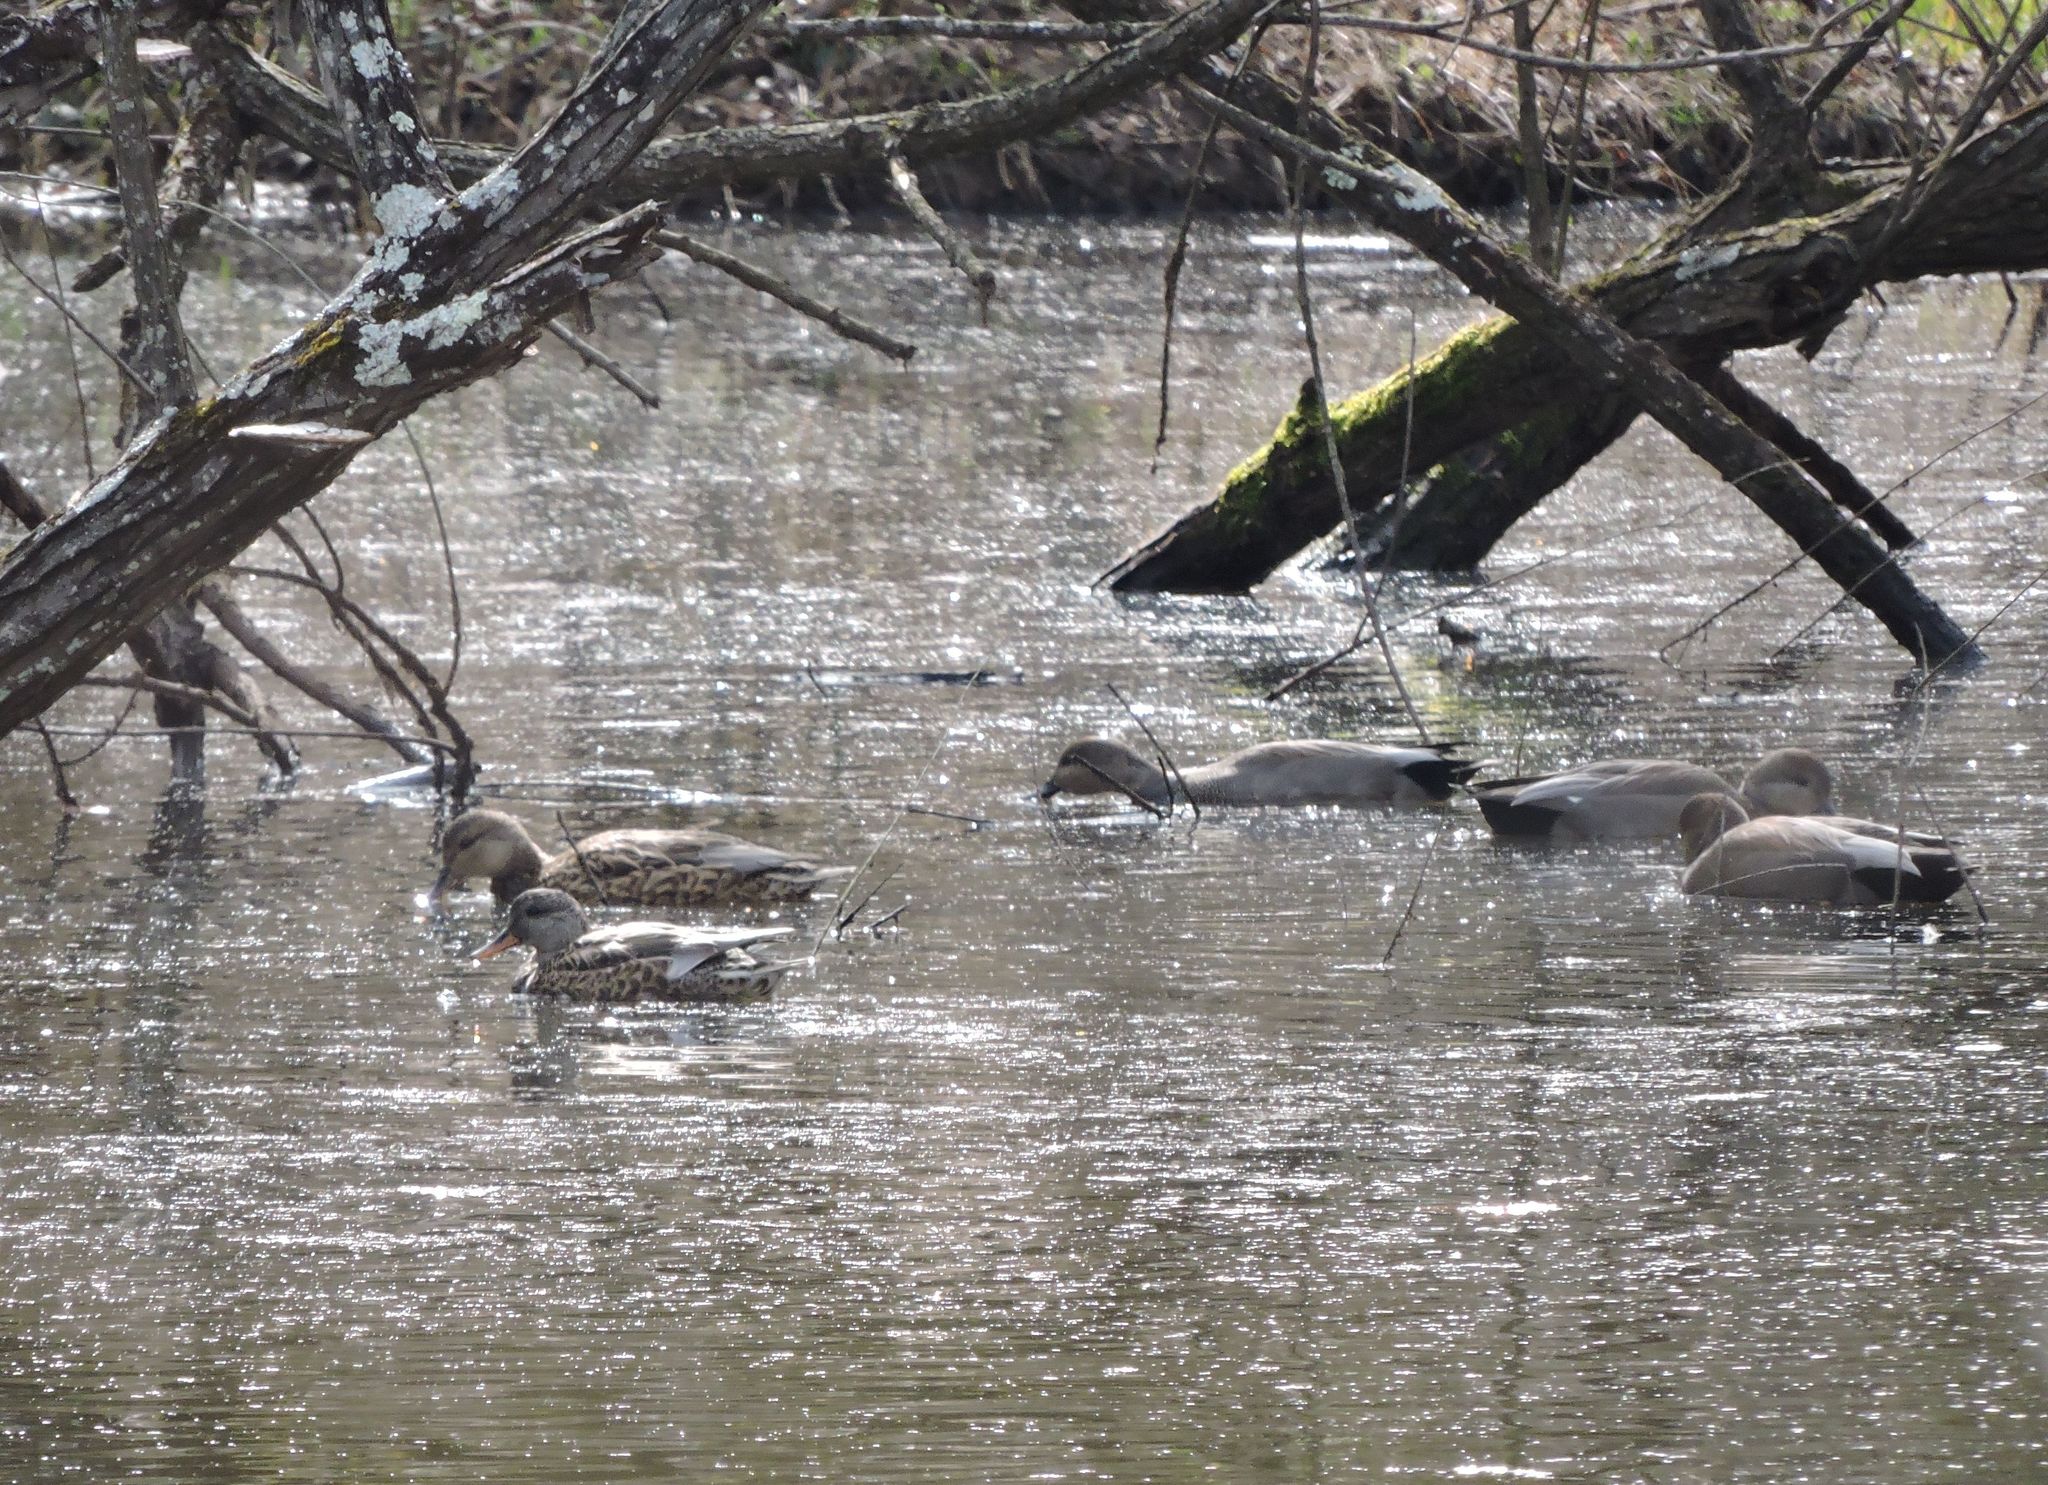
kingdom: Animalia
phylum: Chordata
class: Aves
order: Anseriformes
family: Anatidae
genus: Mareca
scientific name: Mareca strepera
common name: Gadwall
